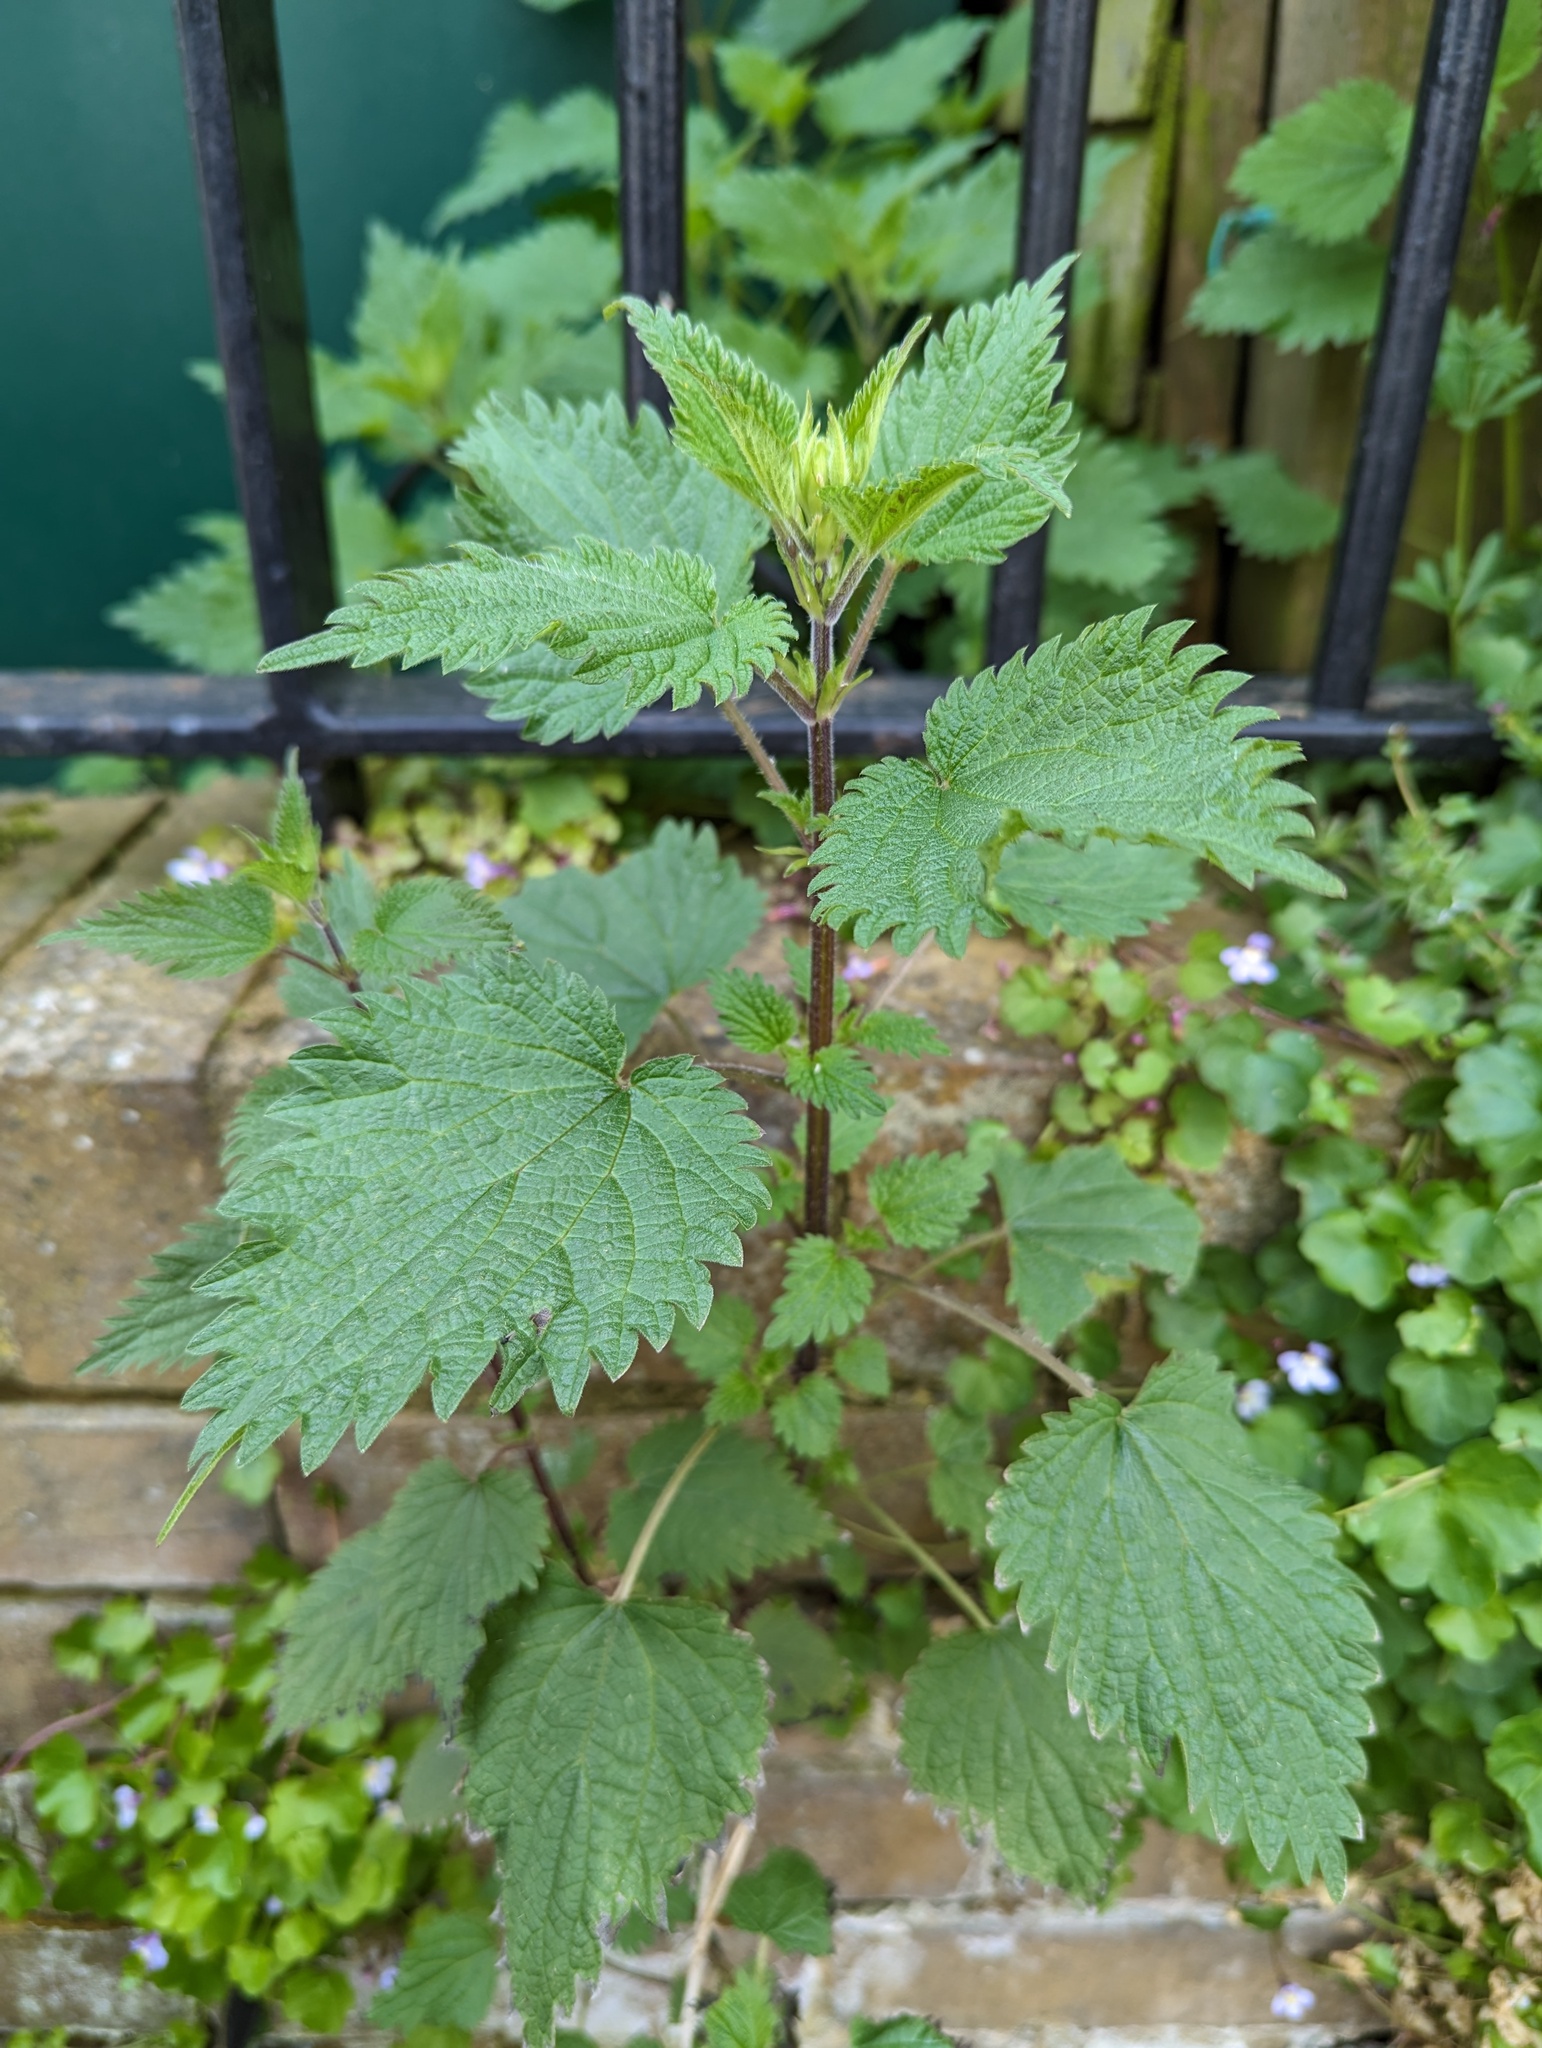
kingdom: Plantae
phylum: Tracheophyta
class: Magnoliopsida
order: Rosales
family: Urticaceae
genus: Urtica
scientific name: Urtica dioica
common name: Common nettle
